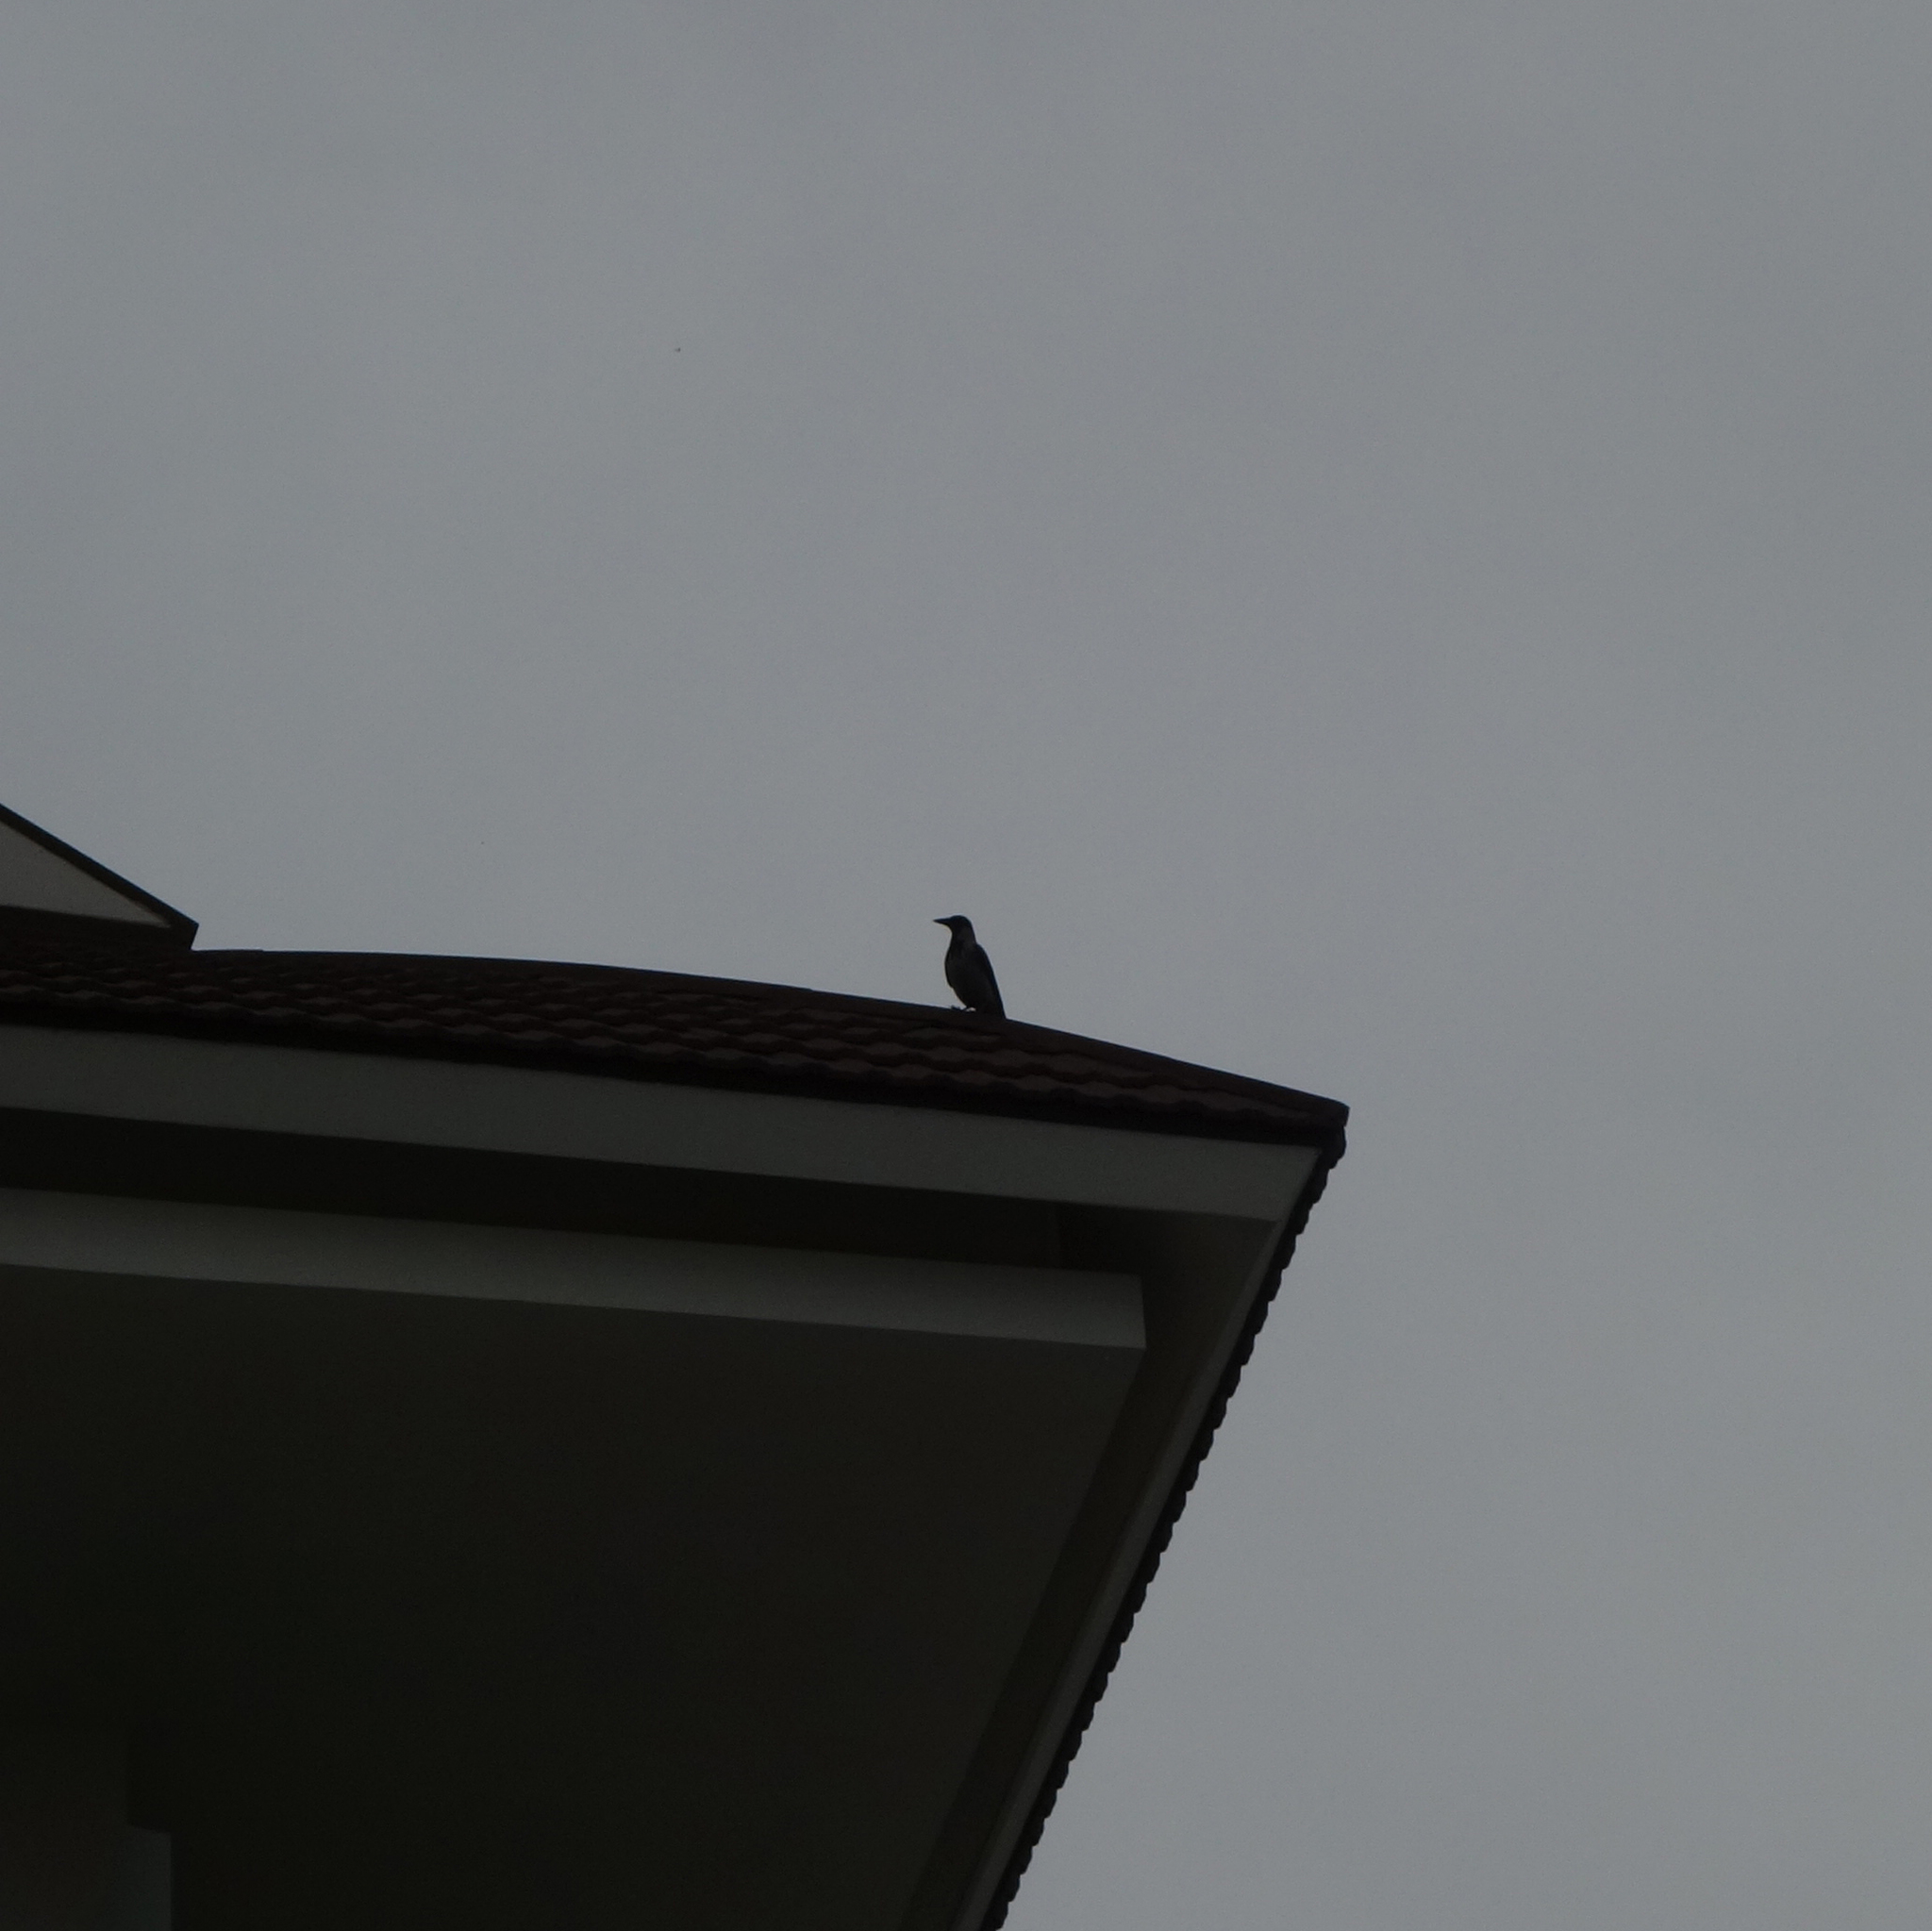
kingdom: Animalia
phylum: Chordata
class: Aves
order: Passeriformes
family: Corvidae
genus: Corvus
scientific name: Corvus cornix
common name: Hooded crow
